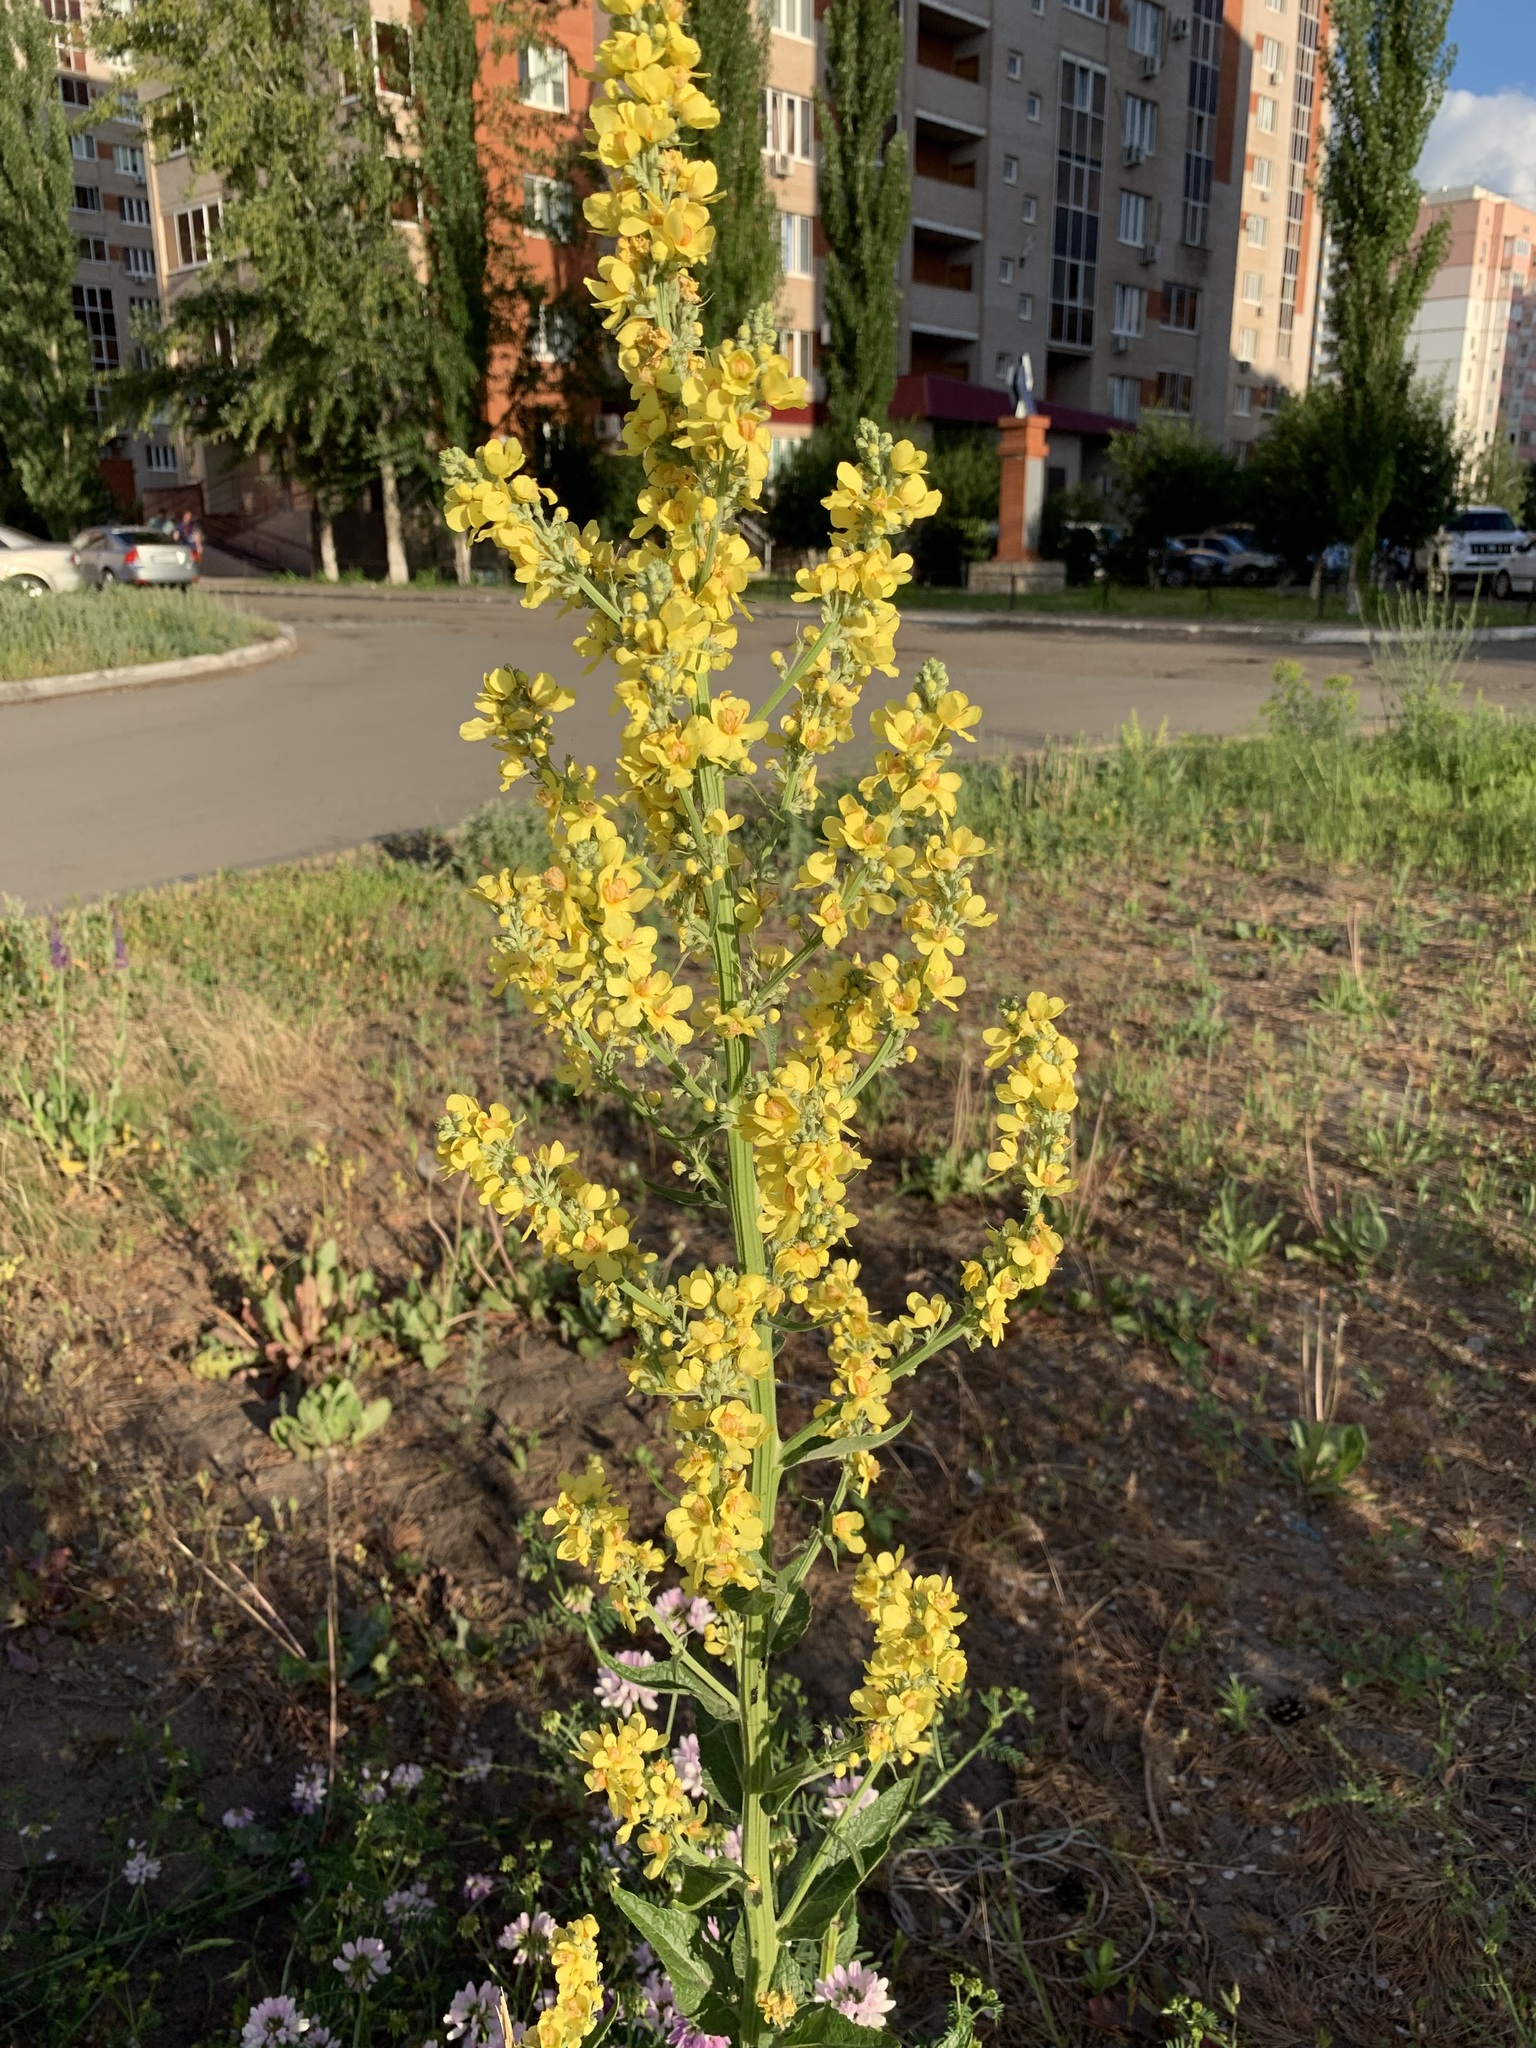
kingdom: Plantae
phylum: Tracheophyta
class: Magnoliopsida
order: Lamiales
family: Scrophulariaceae
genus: Verbascum
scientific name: Verbascum lychnitis
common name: White mullein
